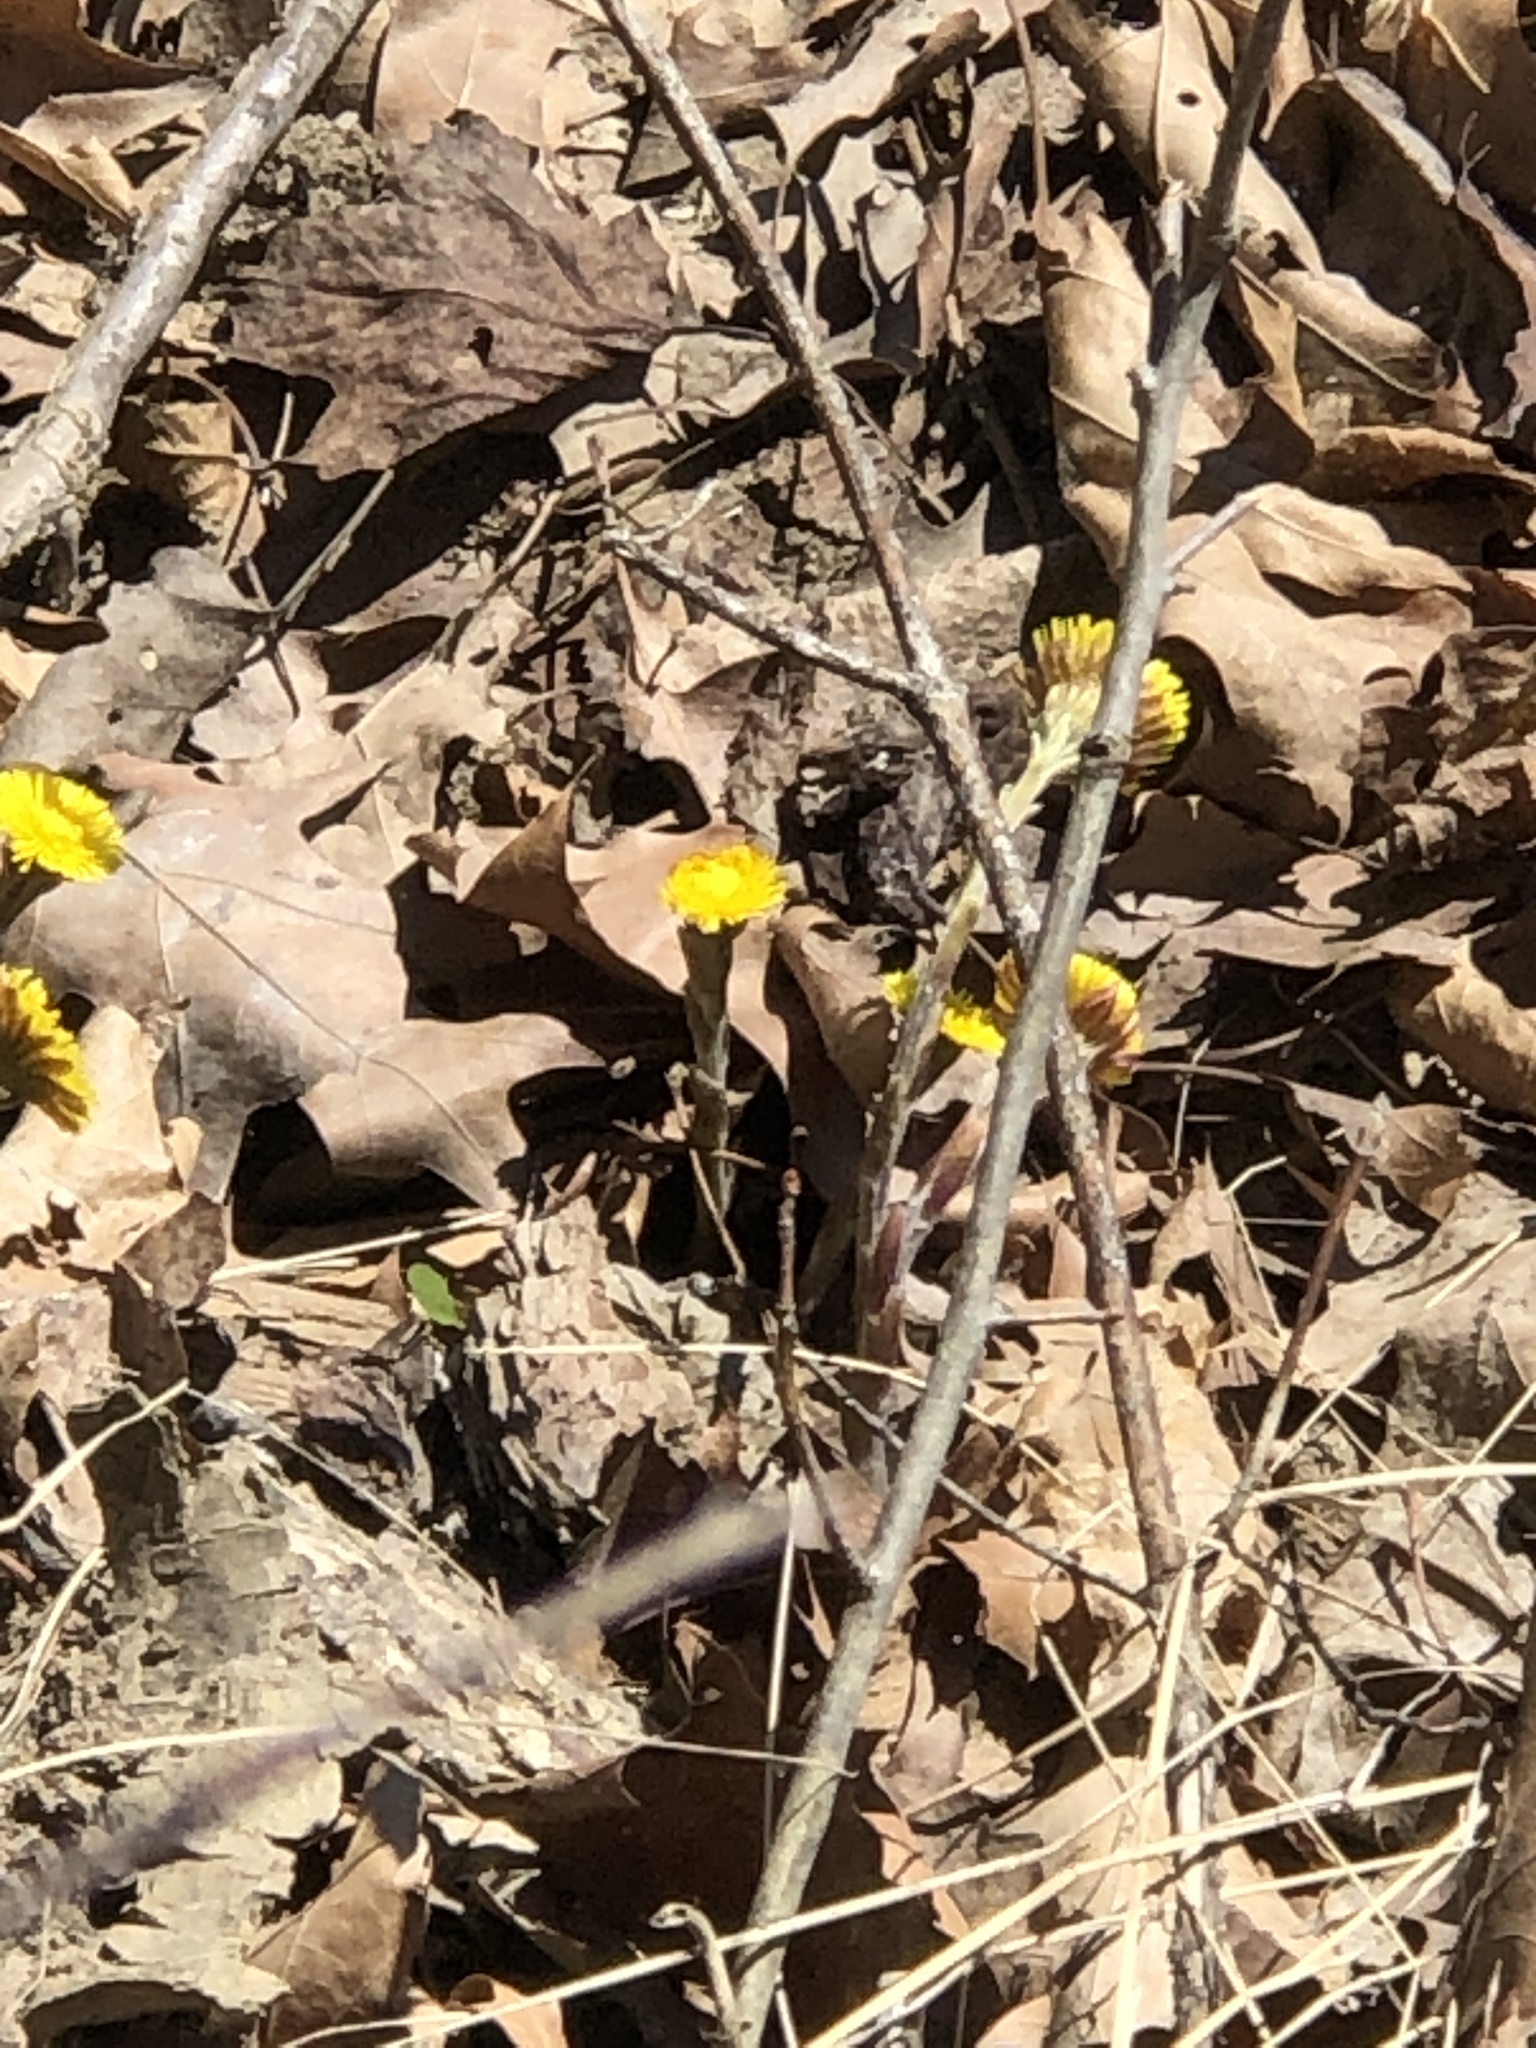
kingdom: Plantae
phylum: Tracheophyta
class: Magnoliopsida
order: Asterales
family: Asteraceae
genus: Tussilago
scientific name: Tussilago farfara
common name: Coltsfoot
